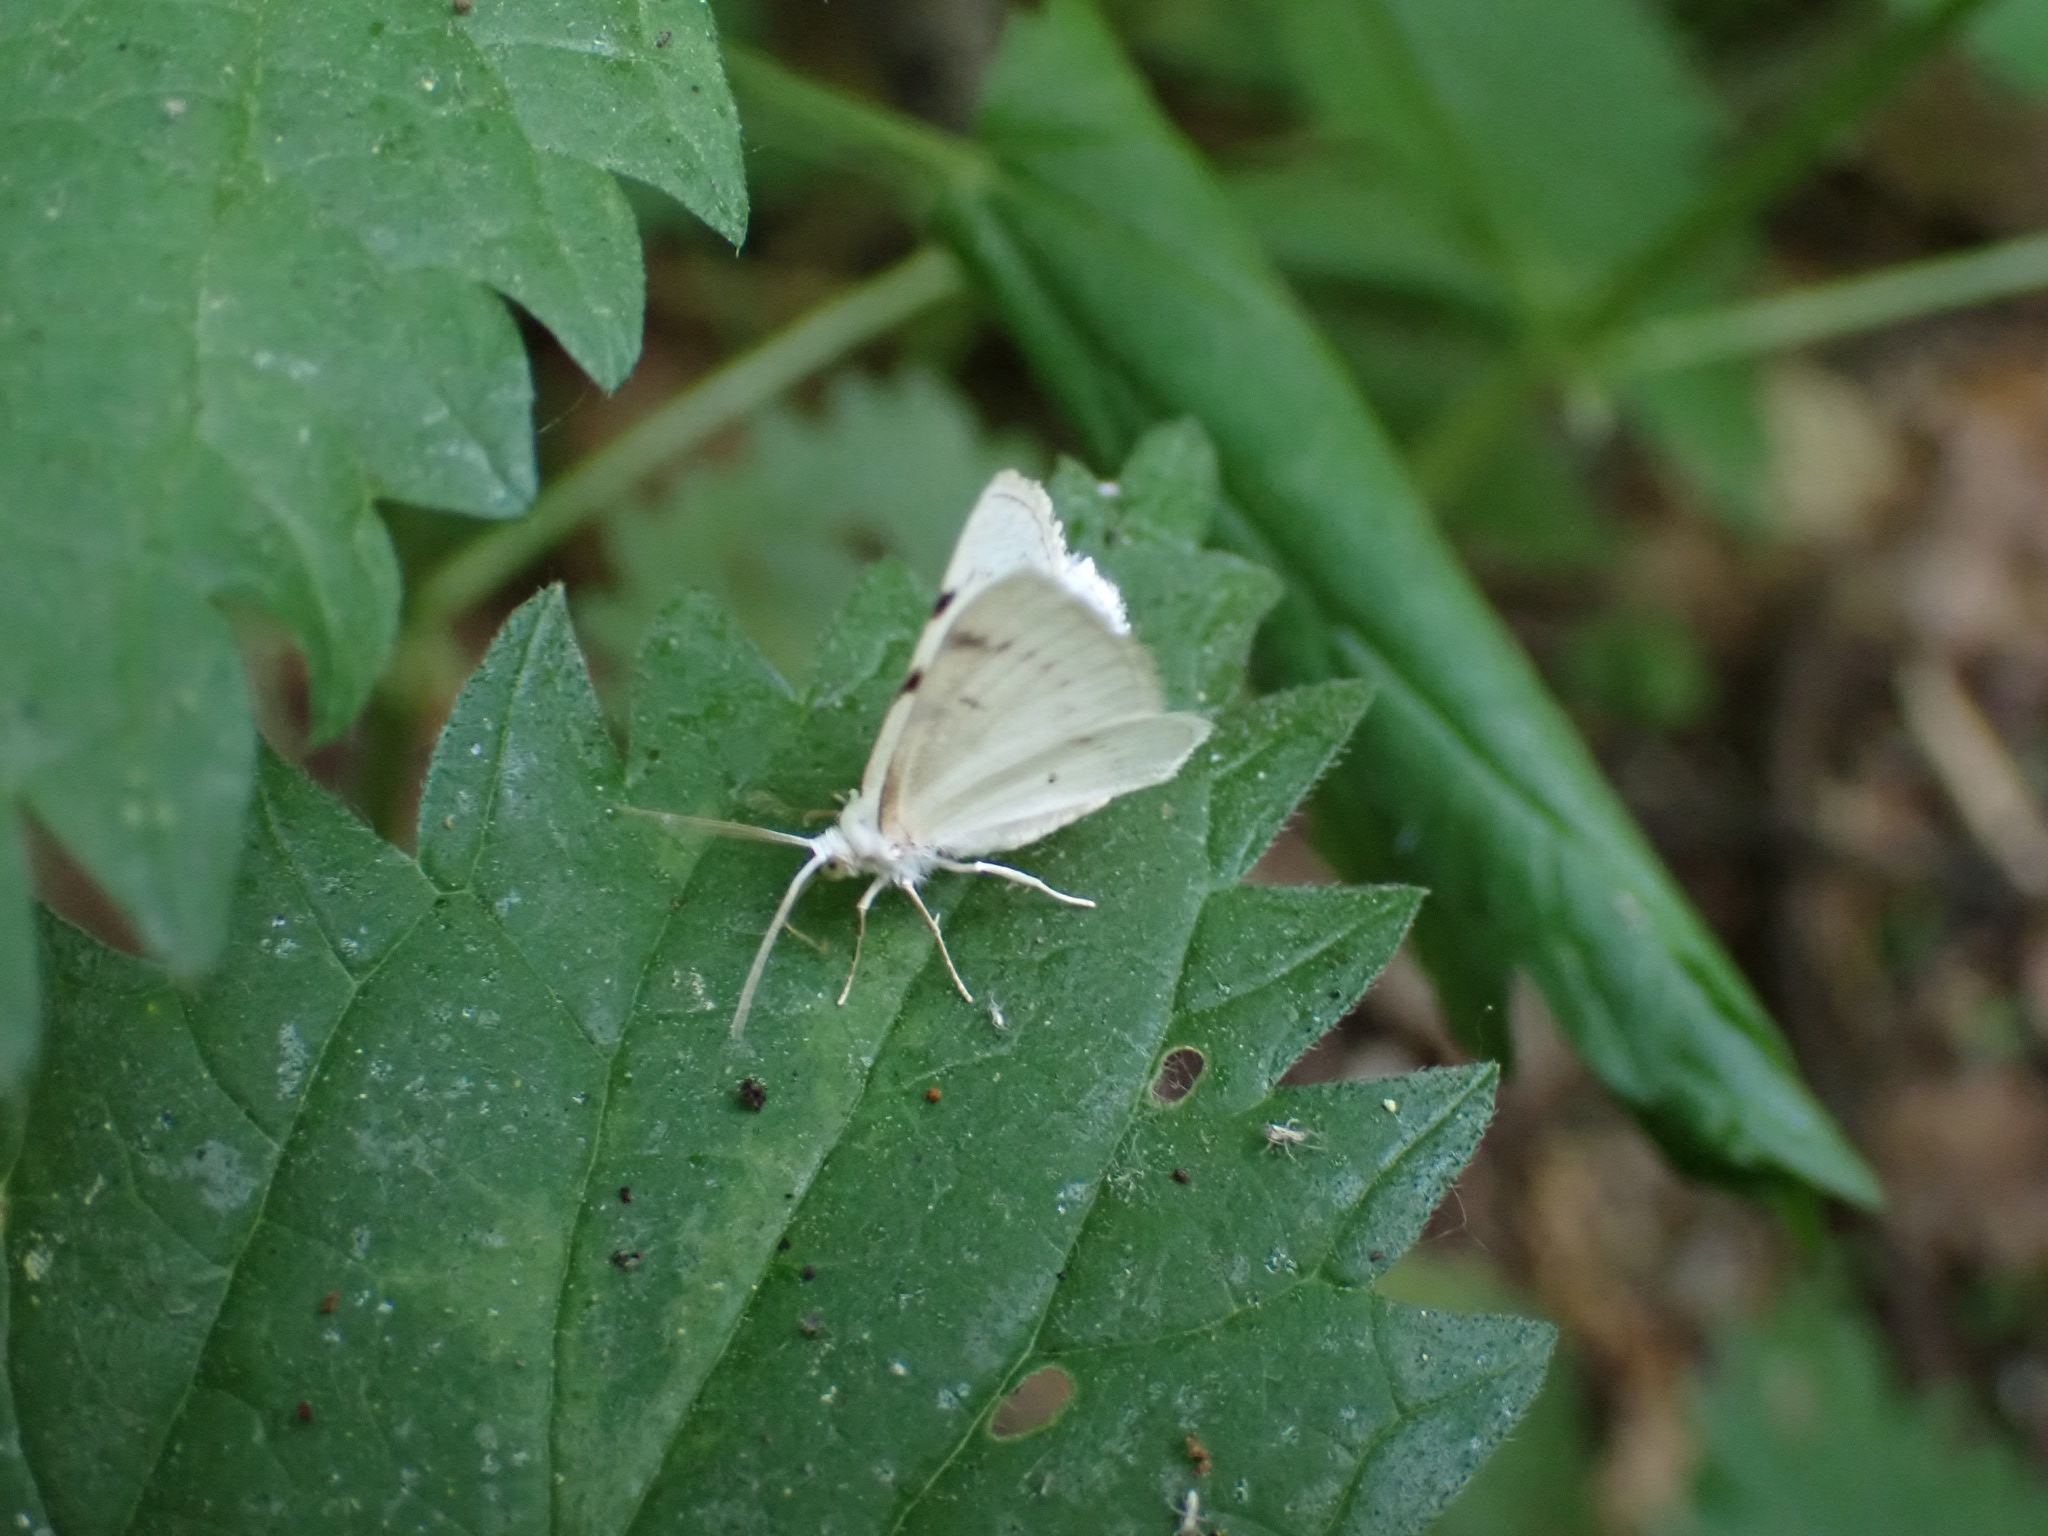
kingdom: Animalia
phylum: Arthropoda
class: Insecta
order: Lepidoptera
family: Geometridae
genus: Lomographa
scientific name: Lomographa bimaculata
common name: White-pinion spotted
